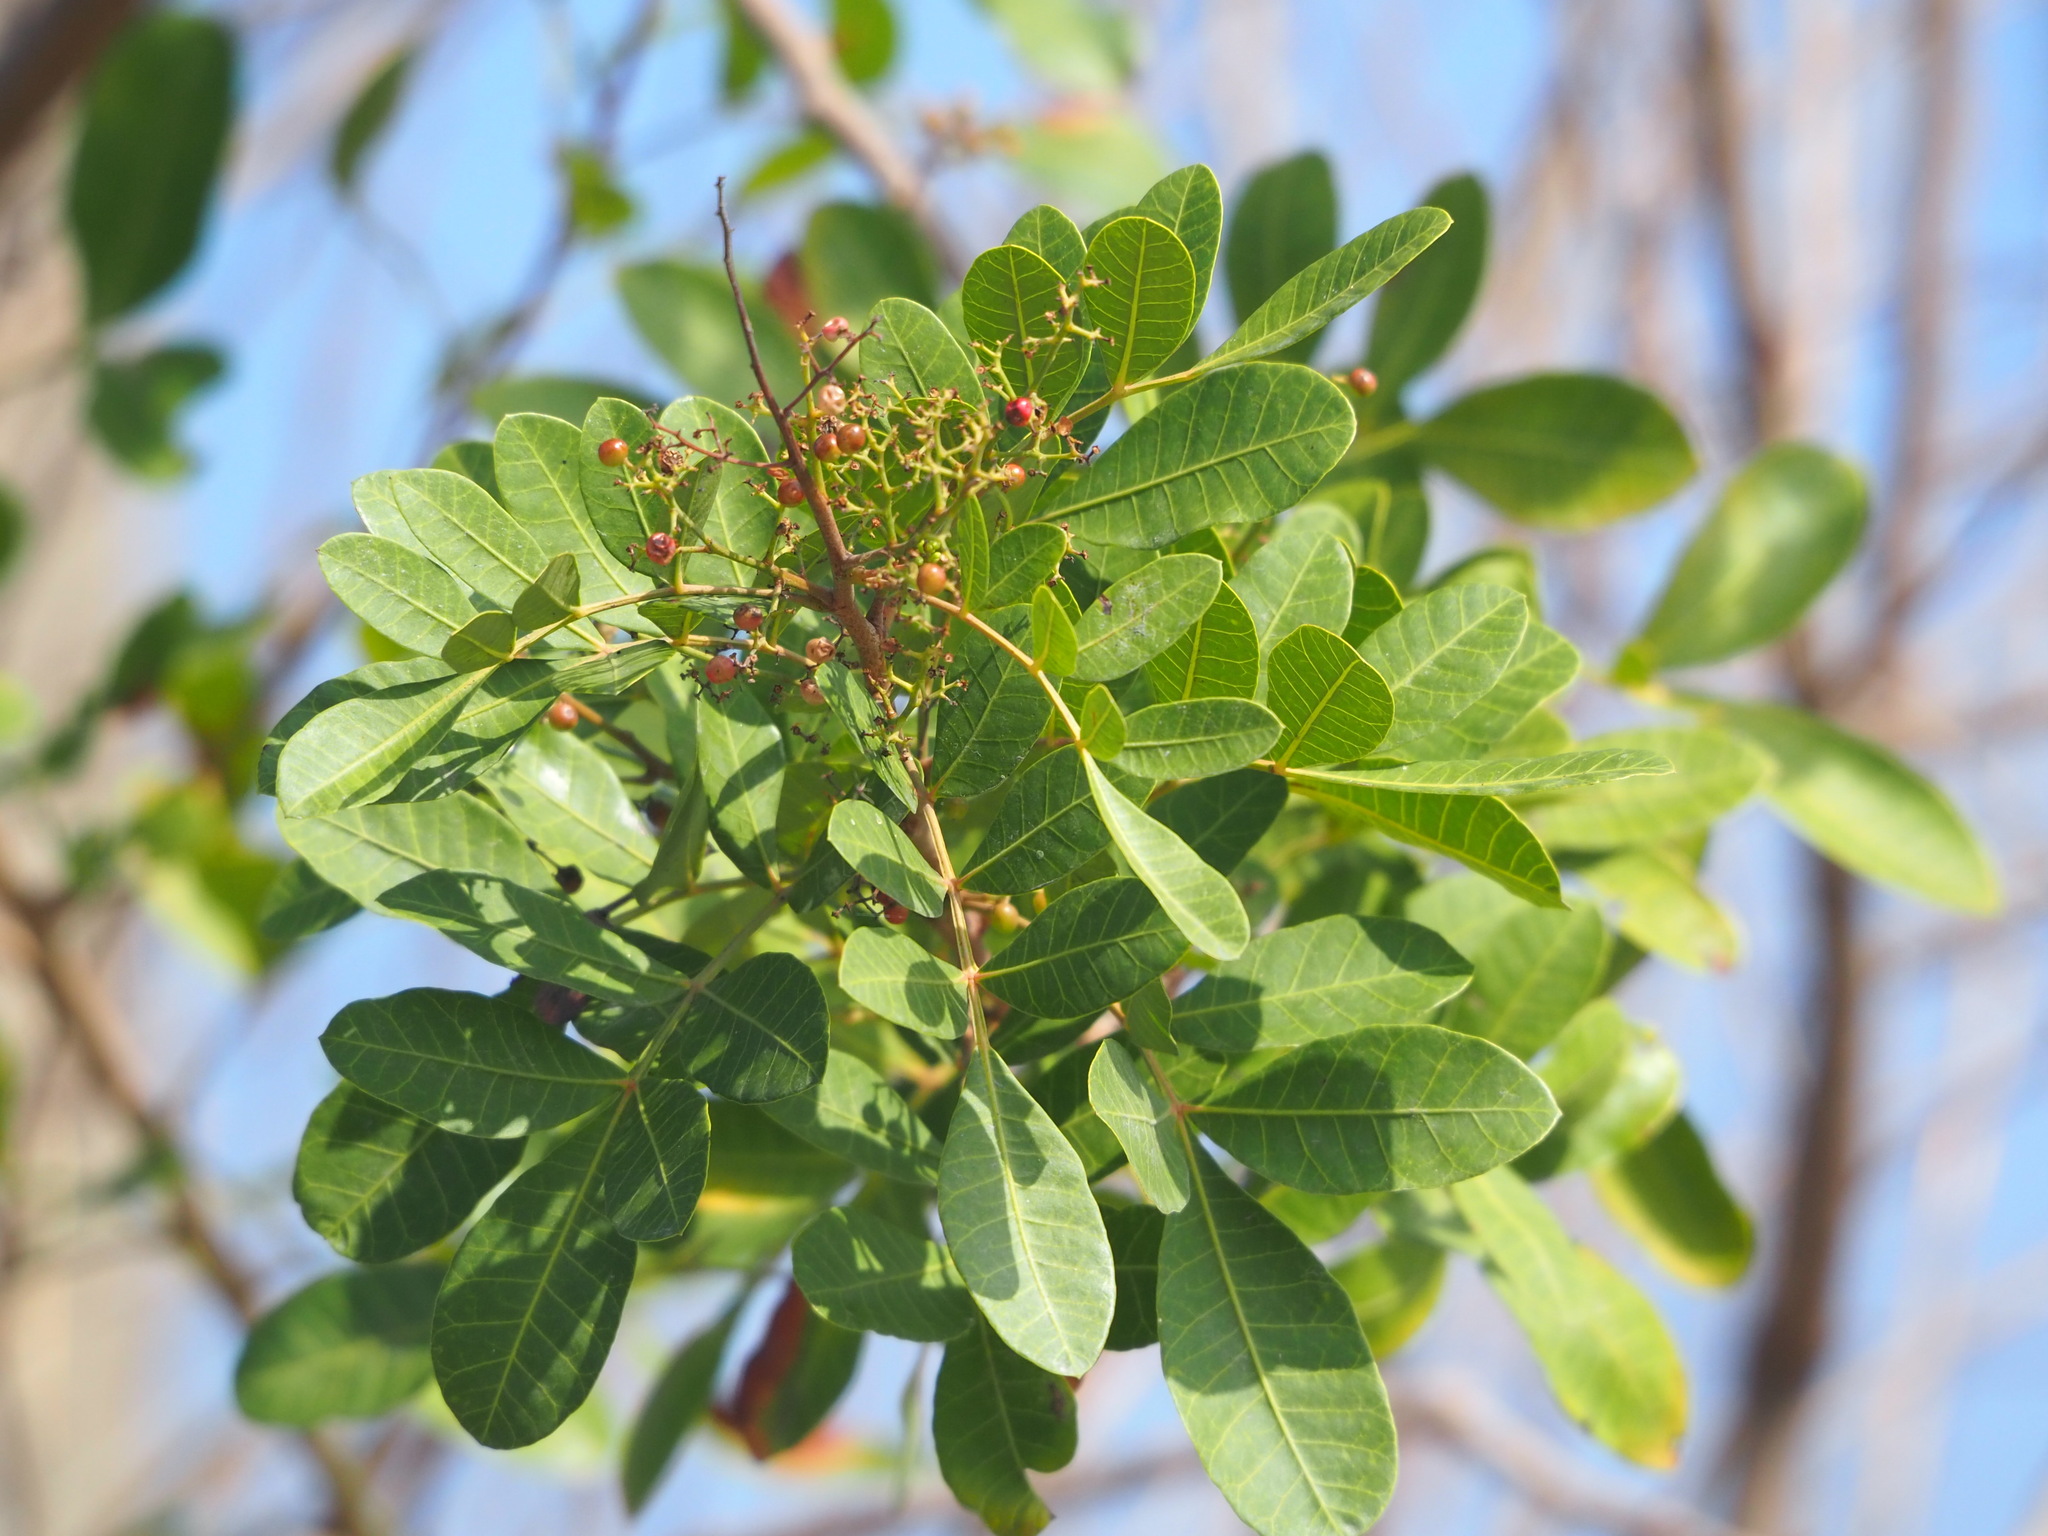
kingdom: Plantae
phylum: Tracheophyta
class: Magnoliopsida
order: Sapindales
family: Anacardiaceae
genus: Schinus
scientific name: Schinus terebinthifolia
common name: Brazilian peppertree
